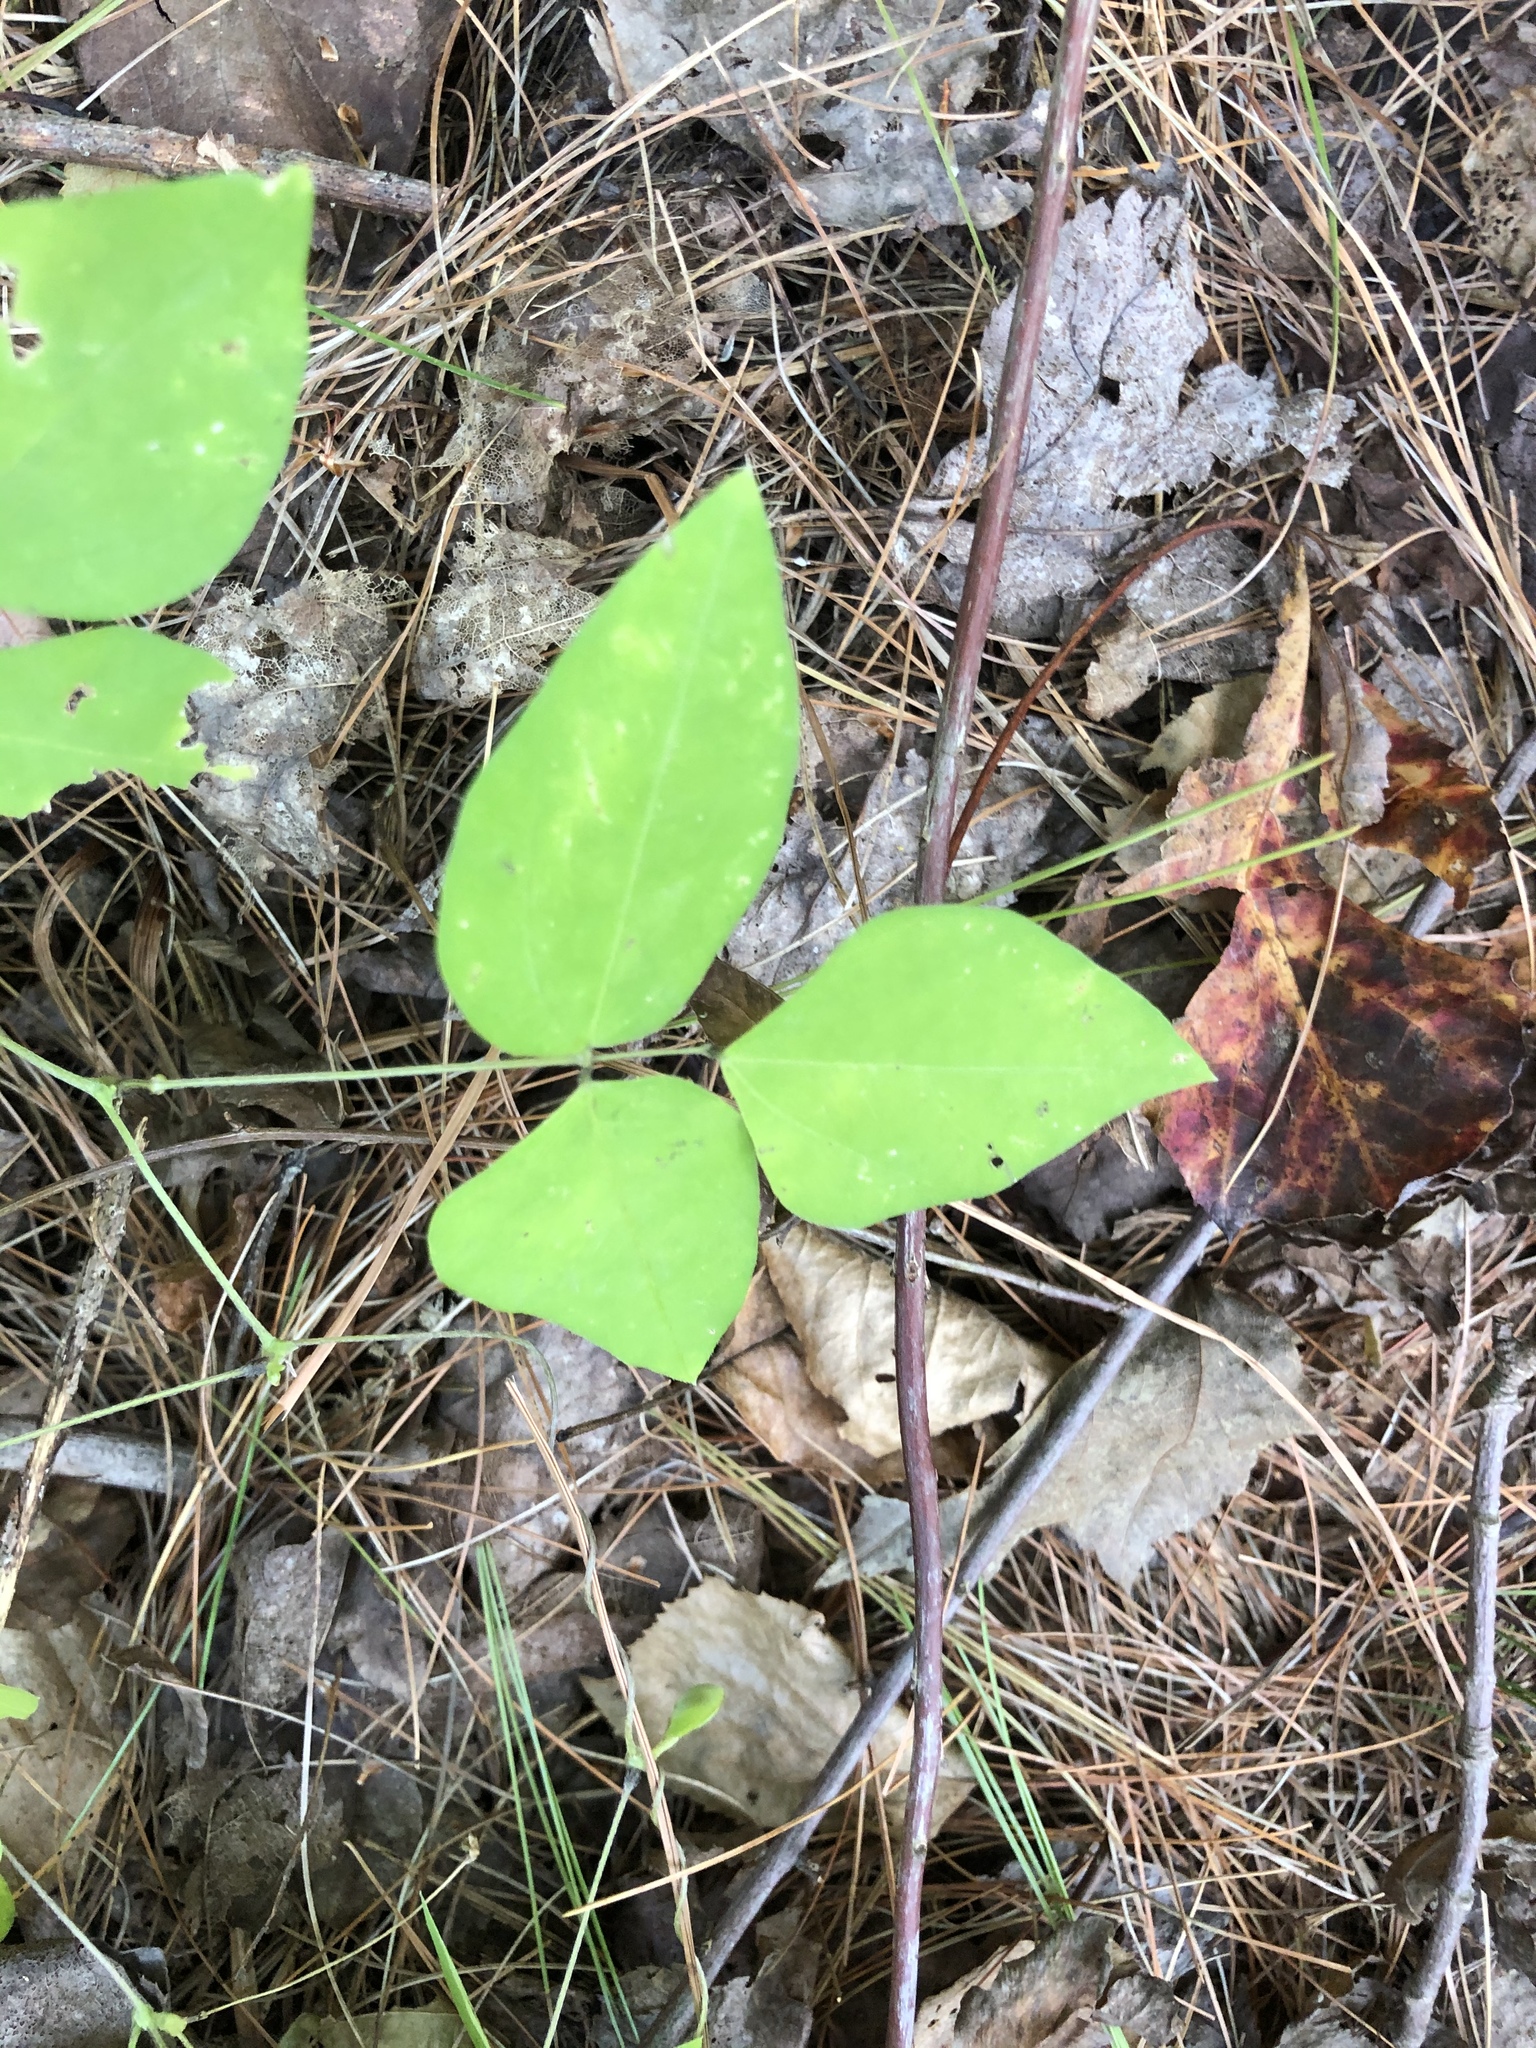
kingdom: Plantae
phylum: Tracheophyta
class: Magnoliopsida
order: Fabales
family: Fabaceae
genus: Amphicarpaea
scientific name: Amphicarpaea bracteata
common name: American hog peanut
